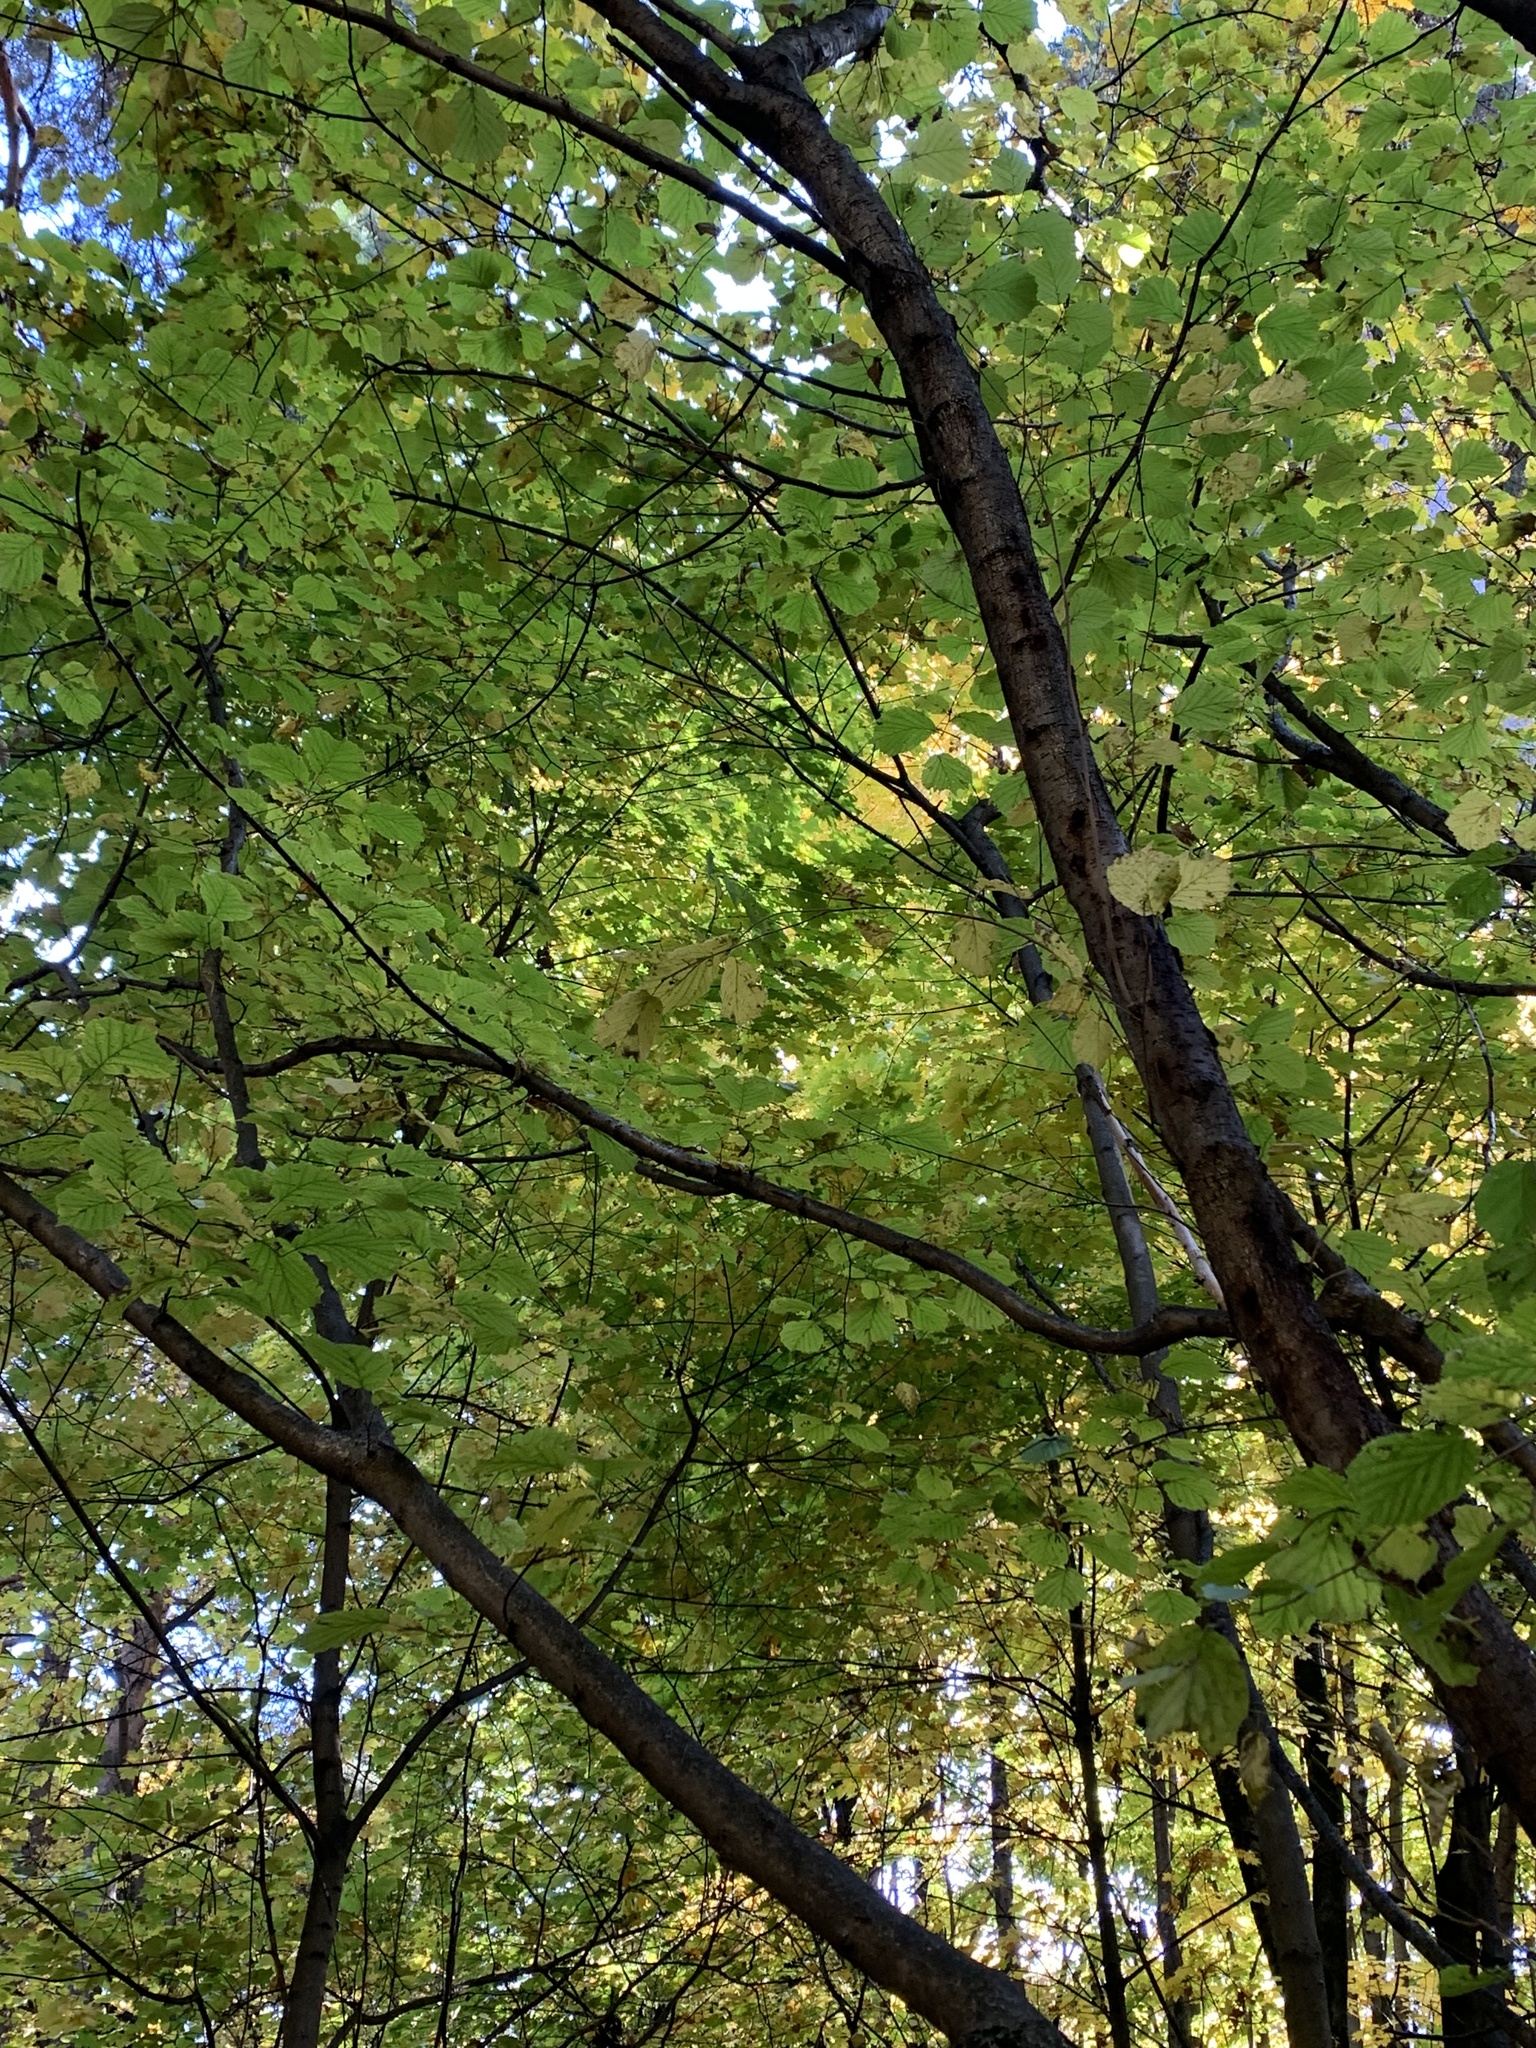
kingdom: Plantae
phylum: Tracheophyta
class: Magnoliopsida
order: Fagales
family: Betulaceae
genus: Corylus
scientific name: Corylus avellana
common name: European hazel
